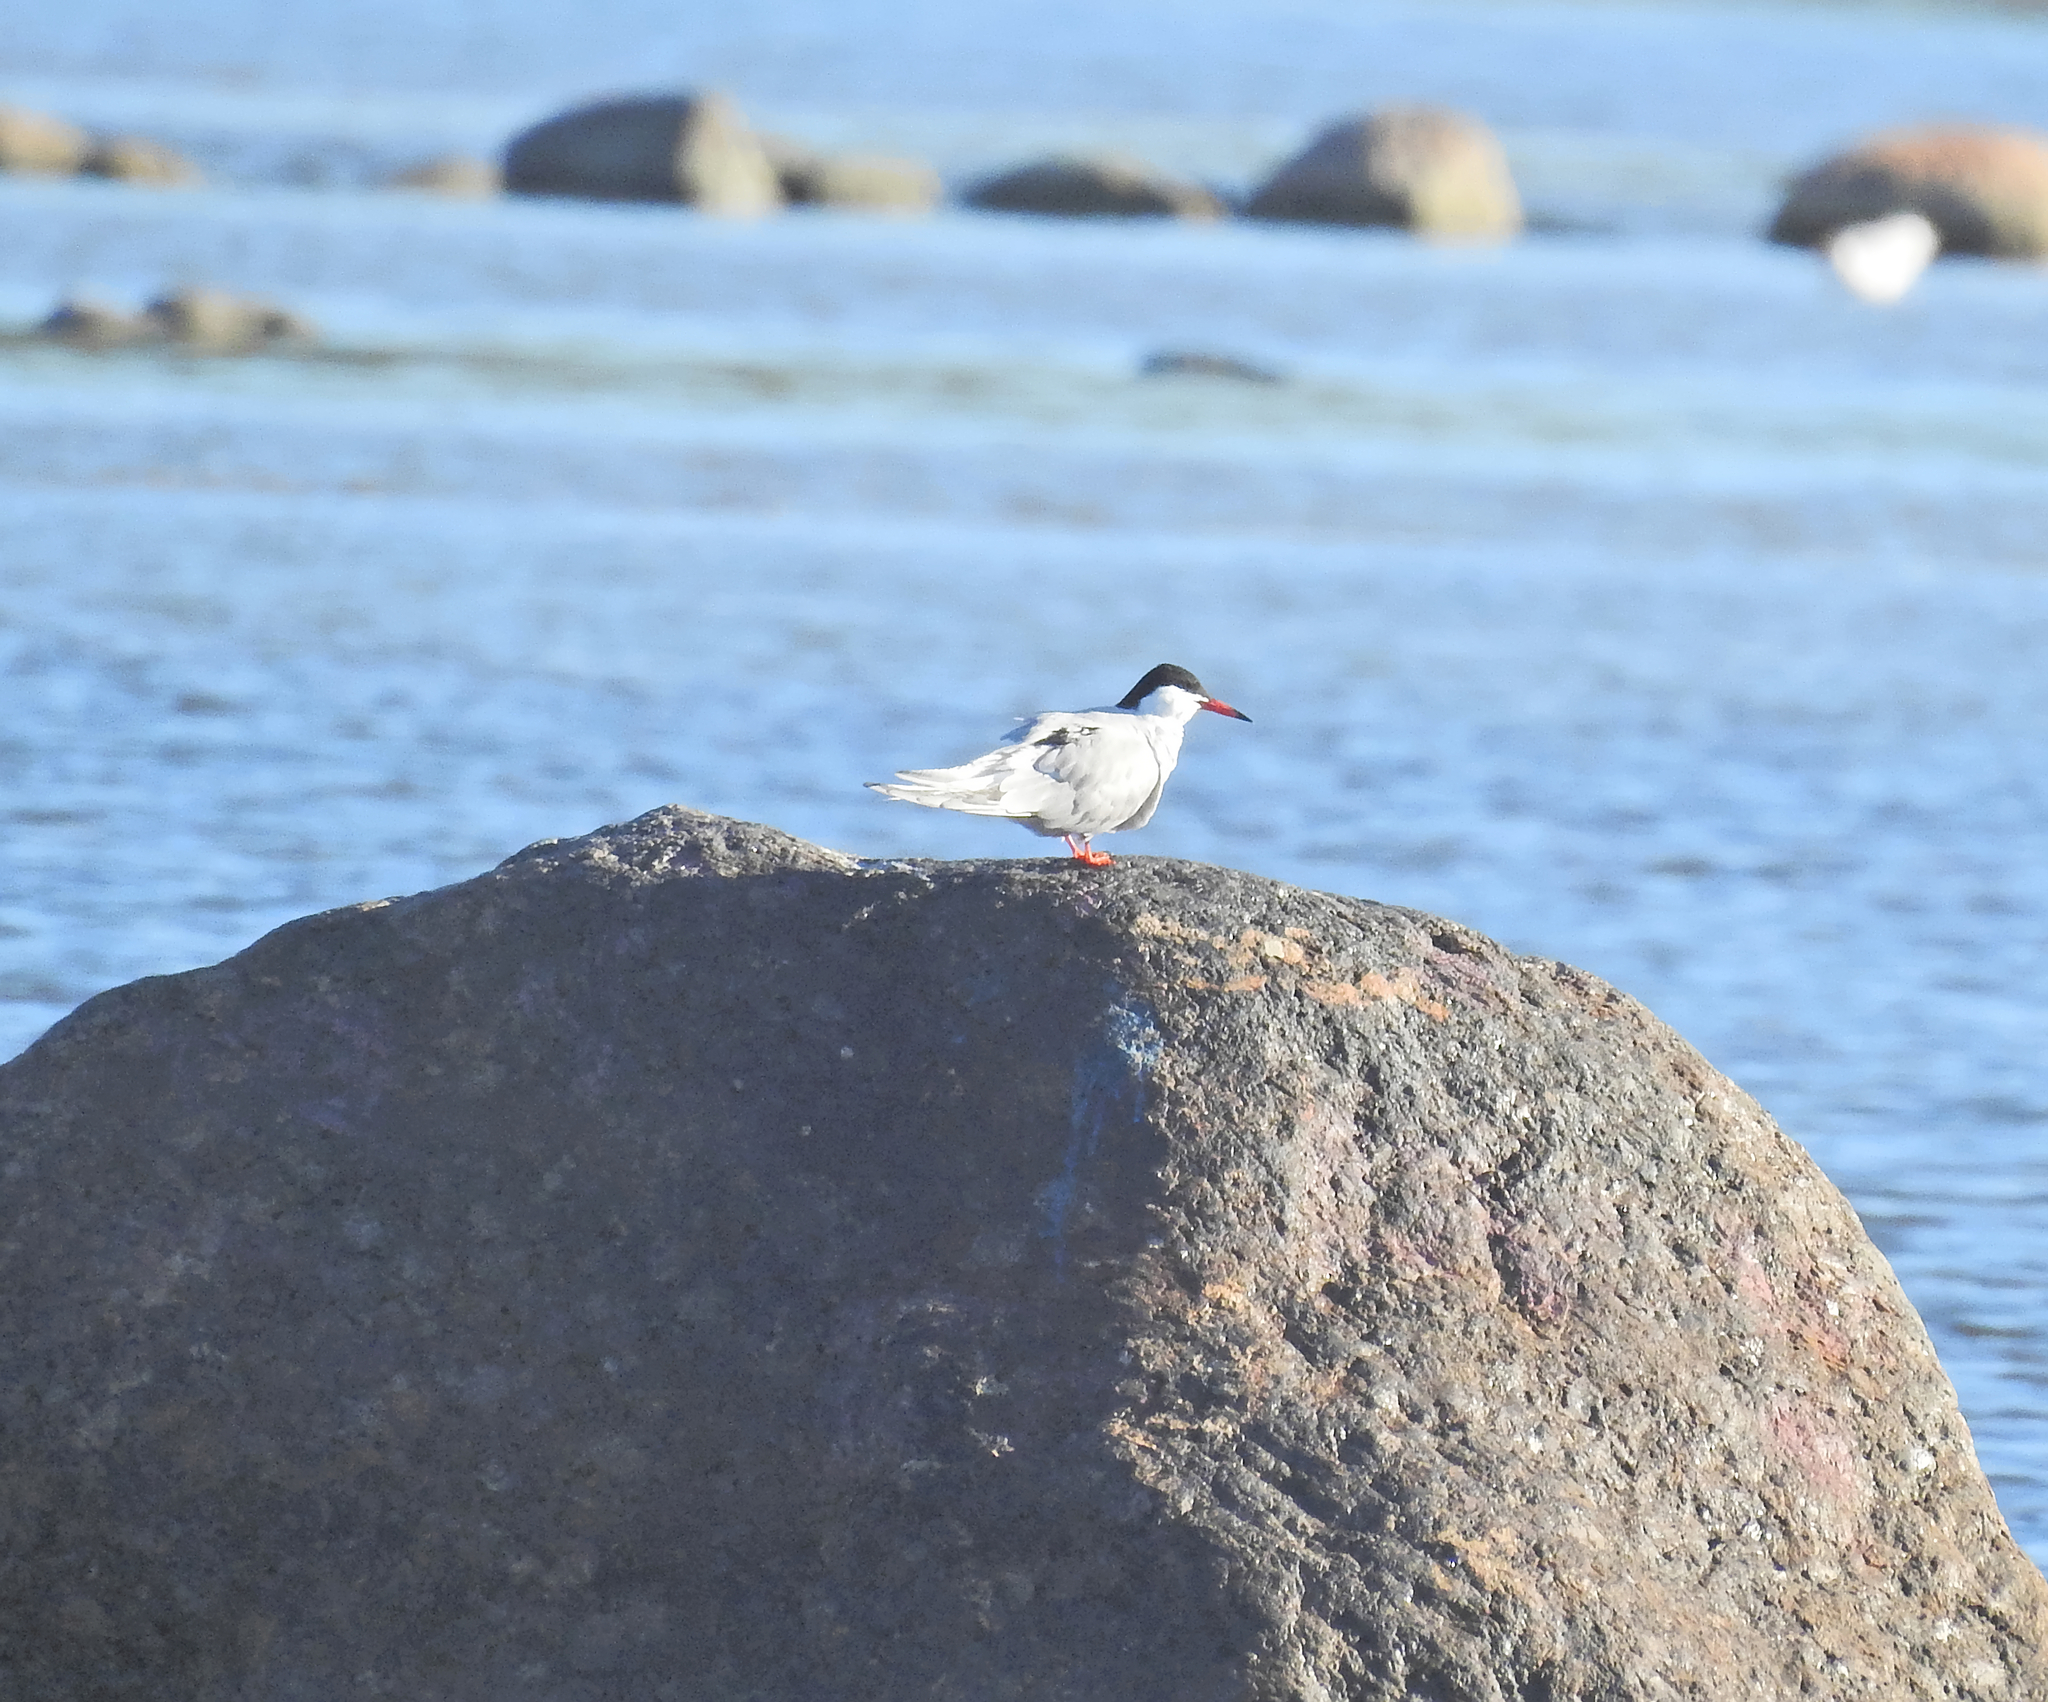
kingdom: Animalia
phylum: Chordata
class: Aves
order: Charadriiformes
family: Laridae
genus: Sterna
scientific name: Sterna hirundo
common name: Common tern
